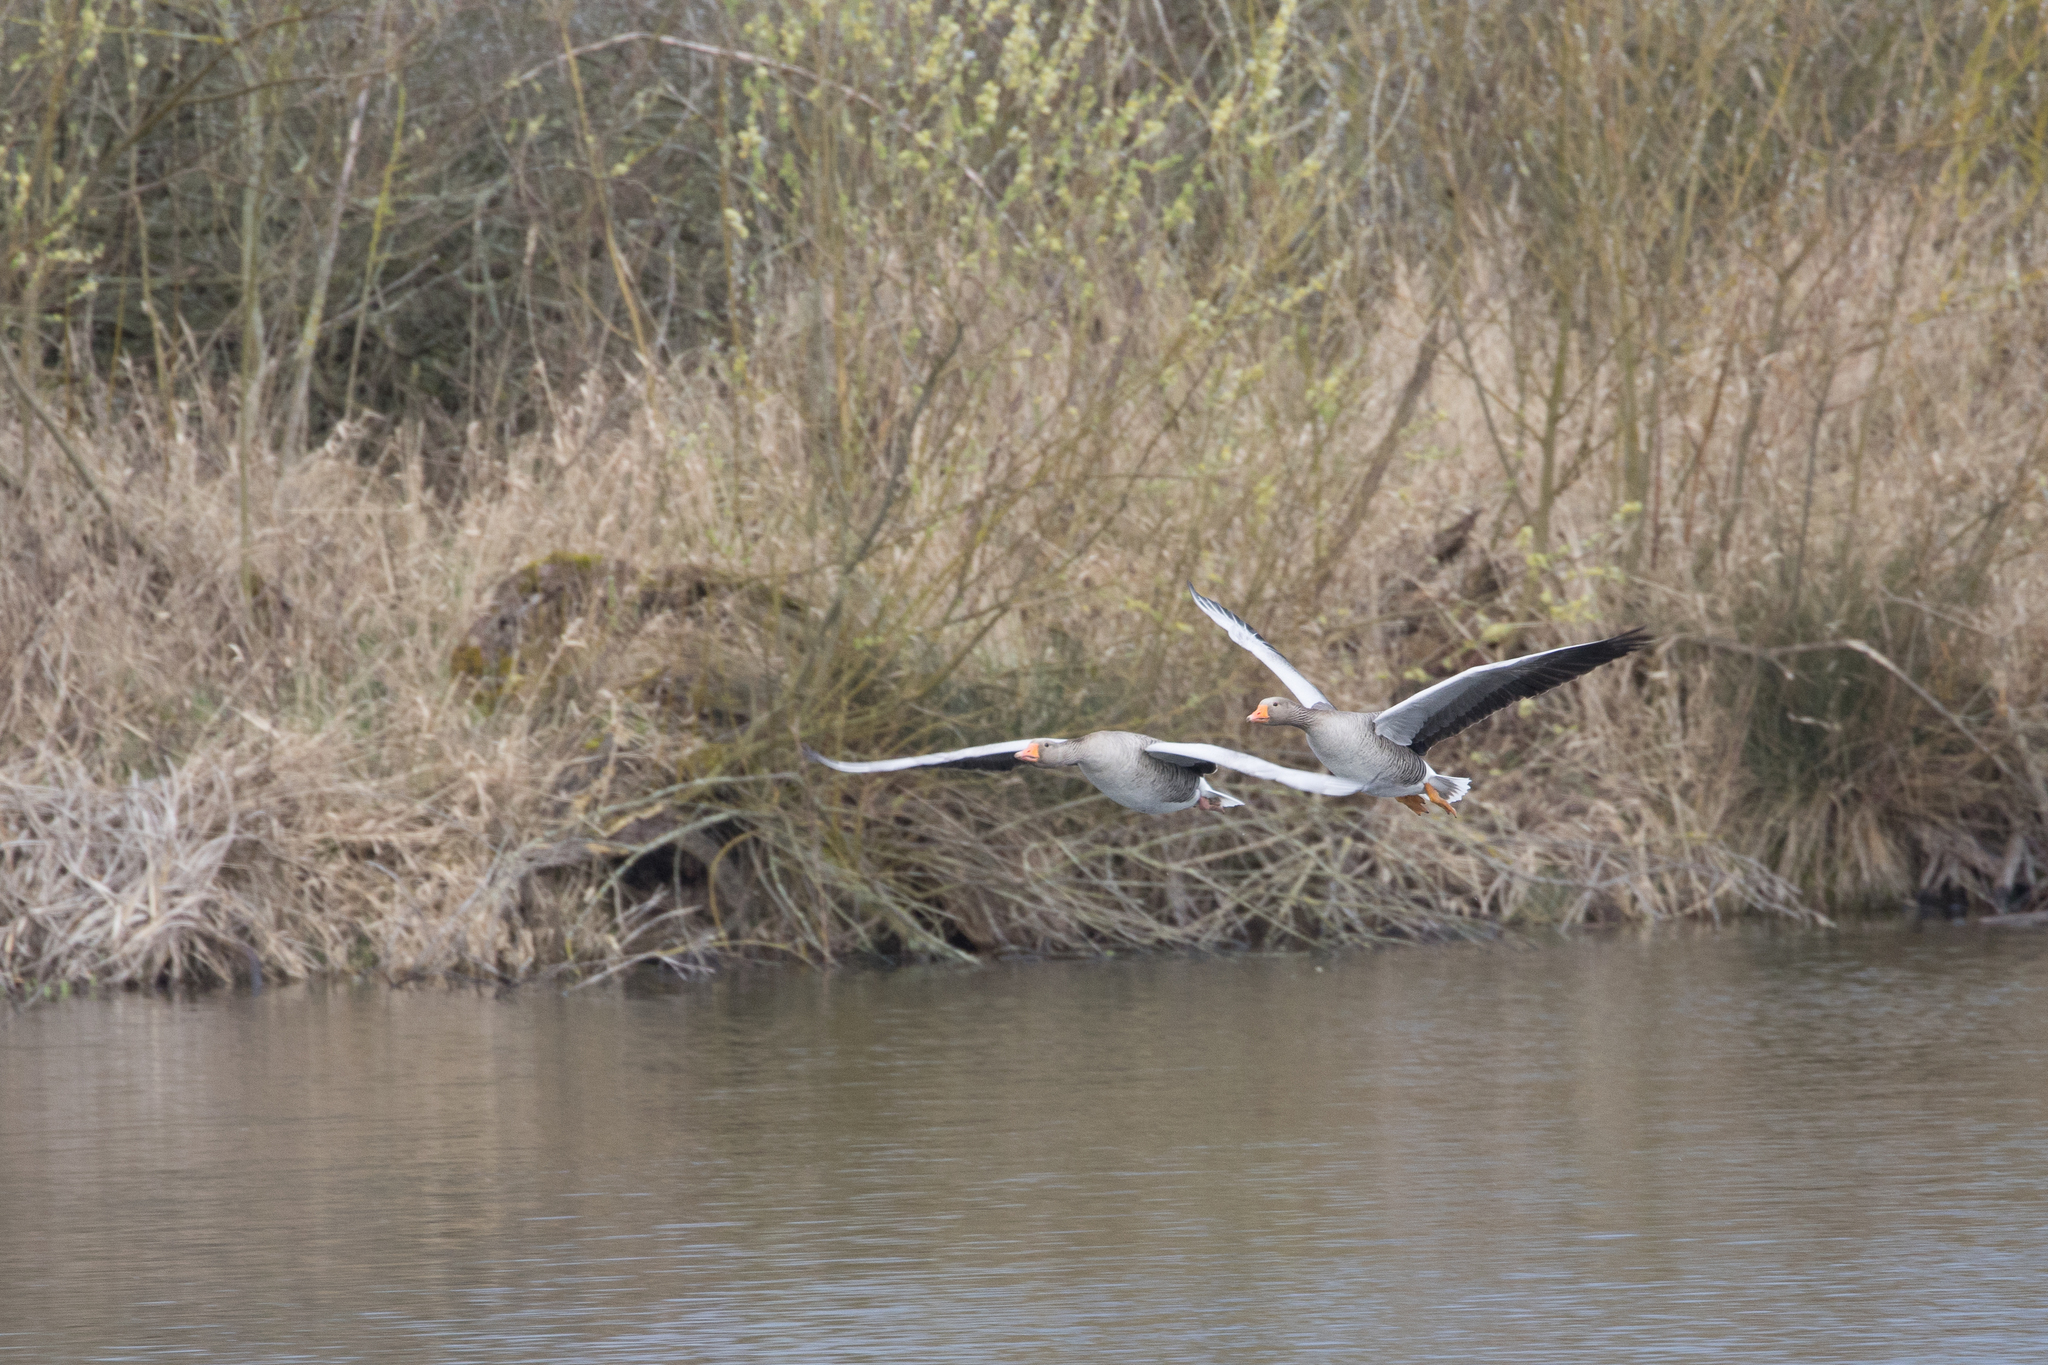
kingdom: Animalia
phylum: Chordata
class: Aves
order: Anseriformes
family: Anatidae
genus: Anser
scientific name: Anser anser
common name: Greylag goose
